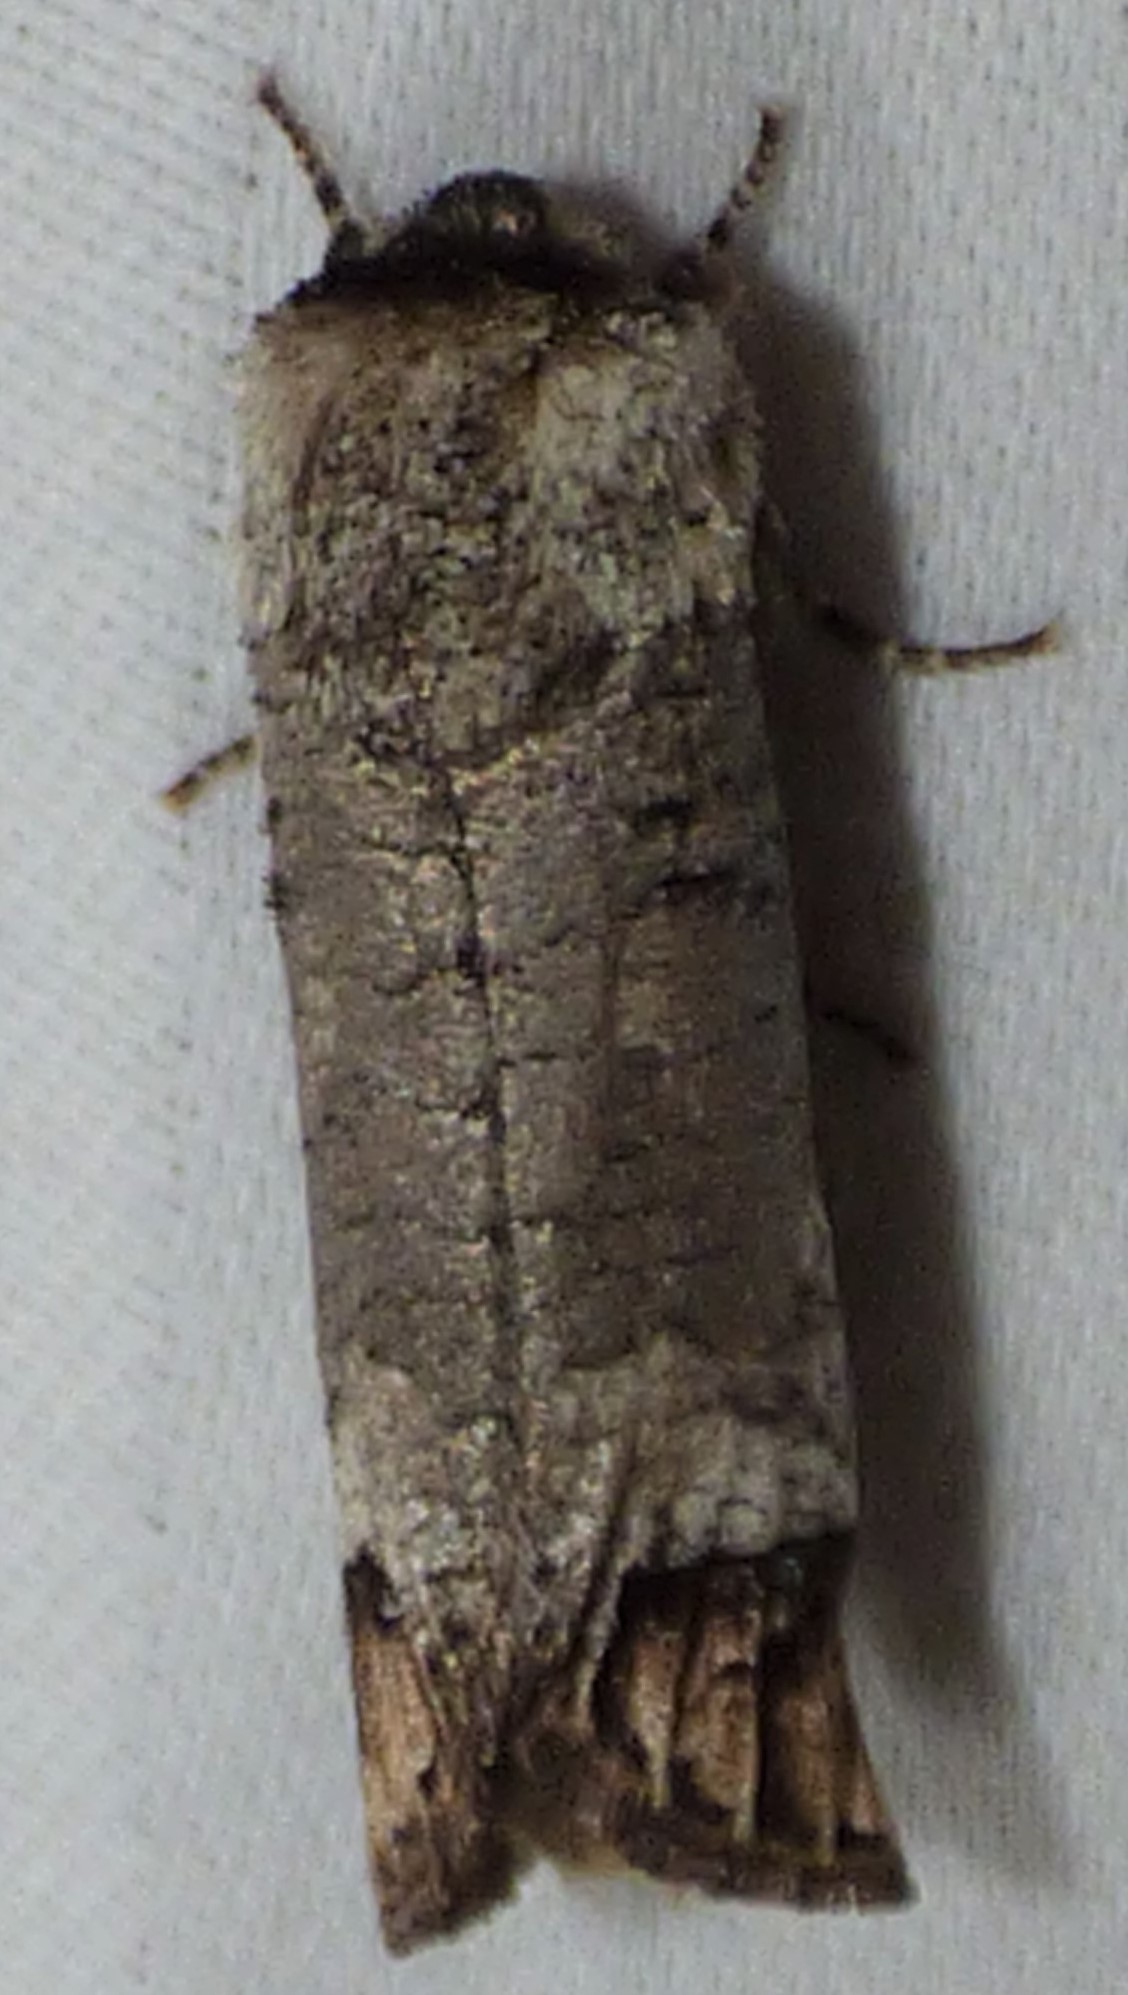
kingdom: Animalia
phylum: Arthropoda
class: Insecta
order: Lepidoptera
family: Cossidae
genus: Cossula
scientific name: Cossula magnifica
